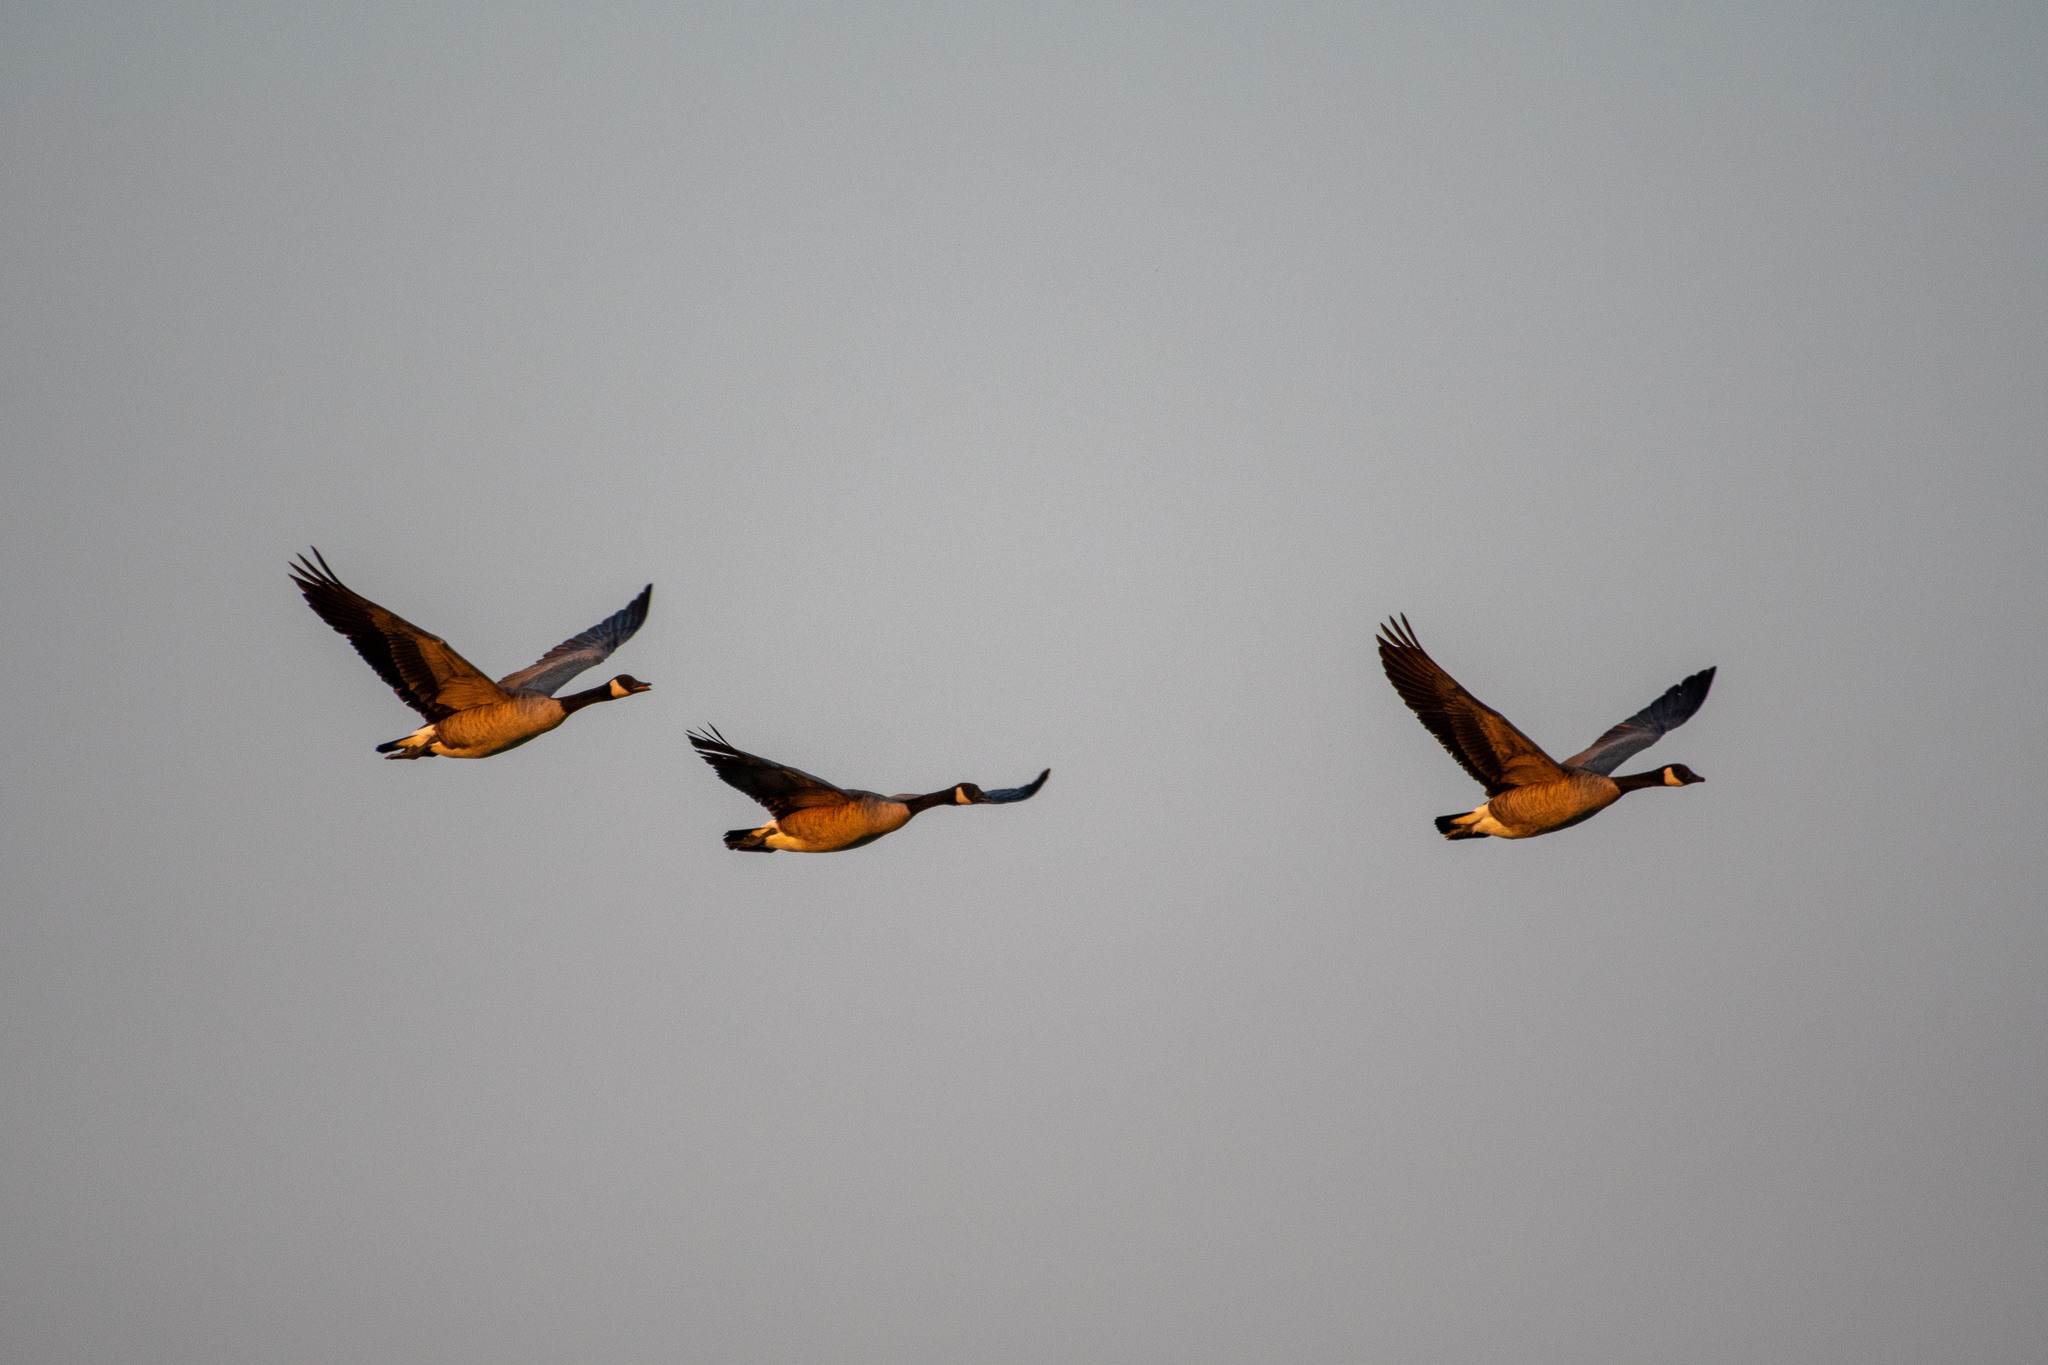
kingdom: Animalia
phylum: Chordata
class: Aves
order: Anseriformes
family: Anatidae
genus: Branta
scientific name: Branta canadensis
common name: Canada goose
